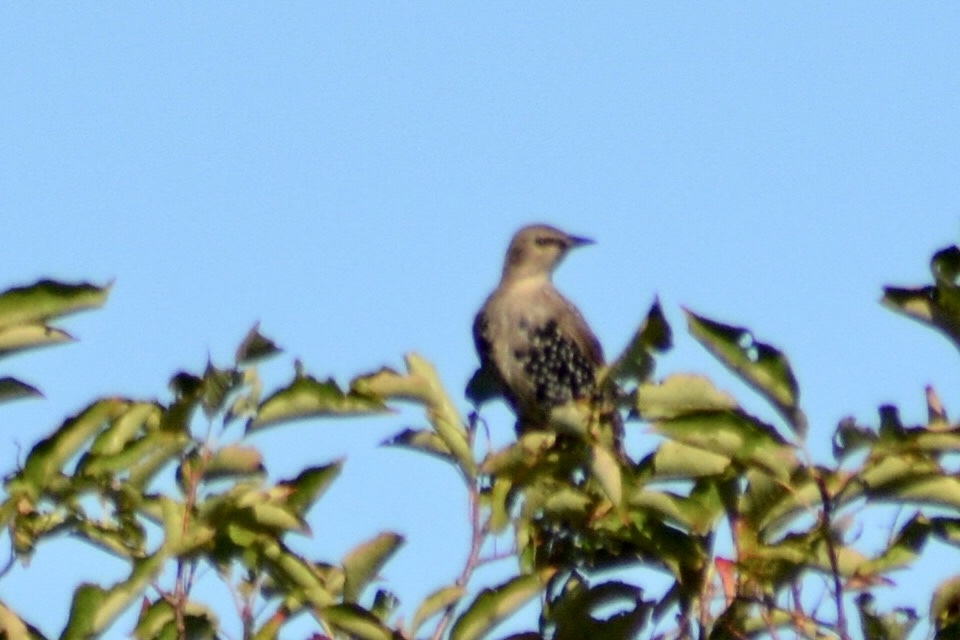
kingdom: Animalia
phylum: Chordata
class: Aves
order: Passeriformes
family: Sturnidae
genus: Sturnus
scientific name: Sturnus vulgaris
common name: Common starling
